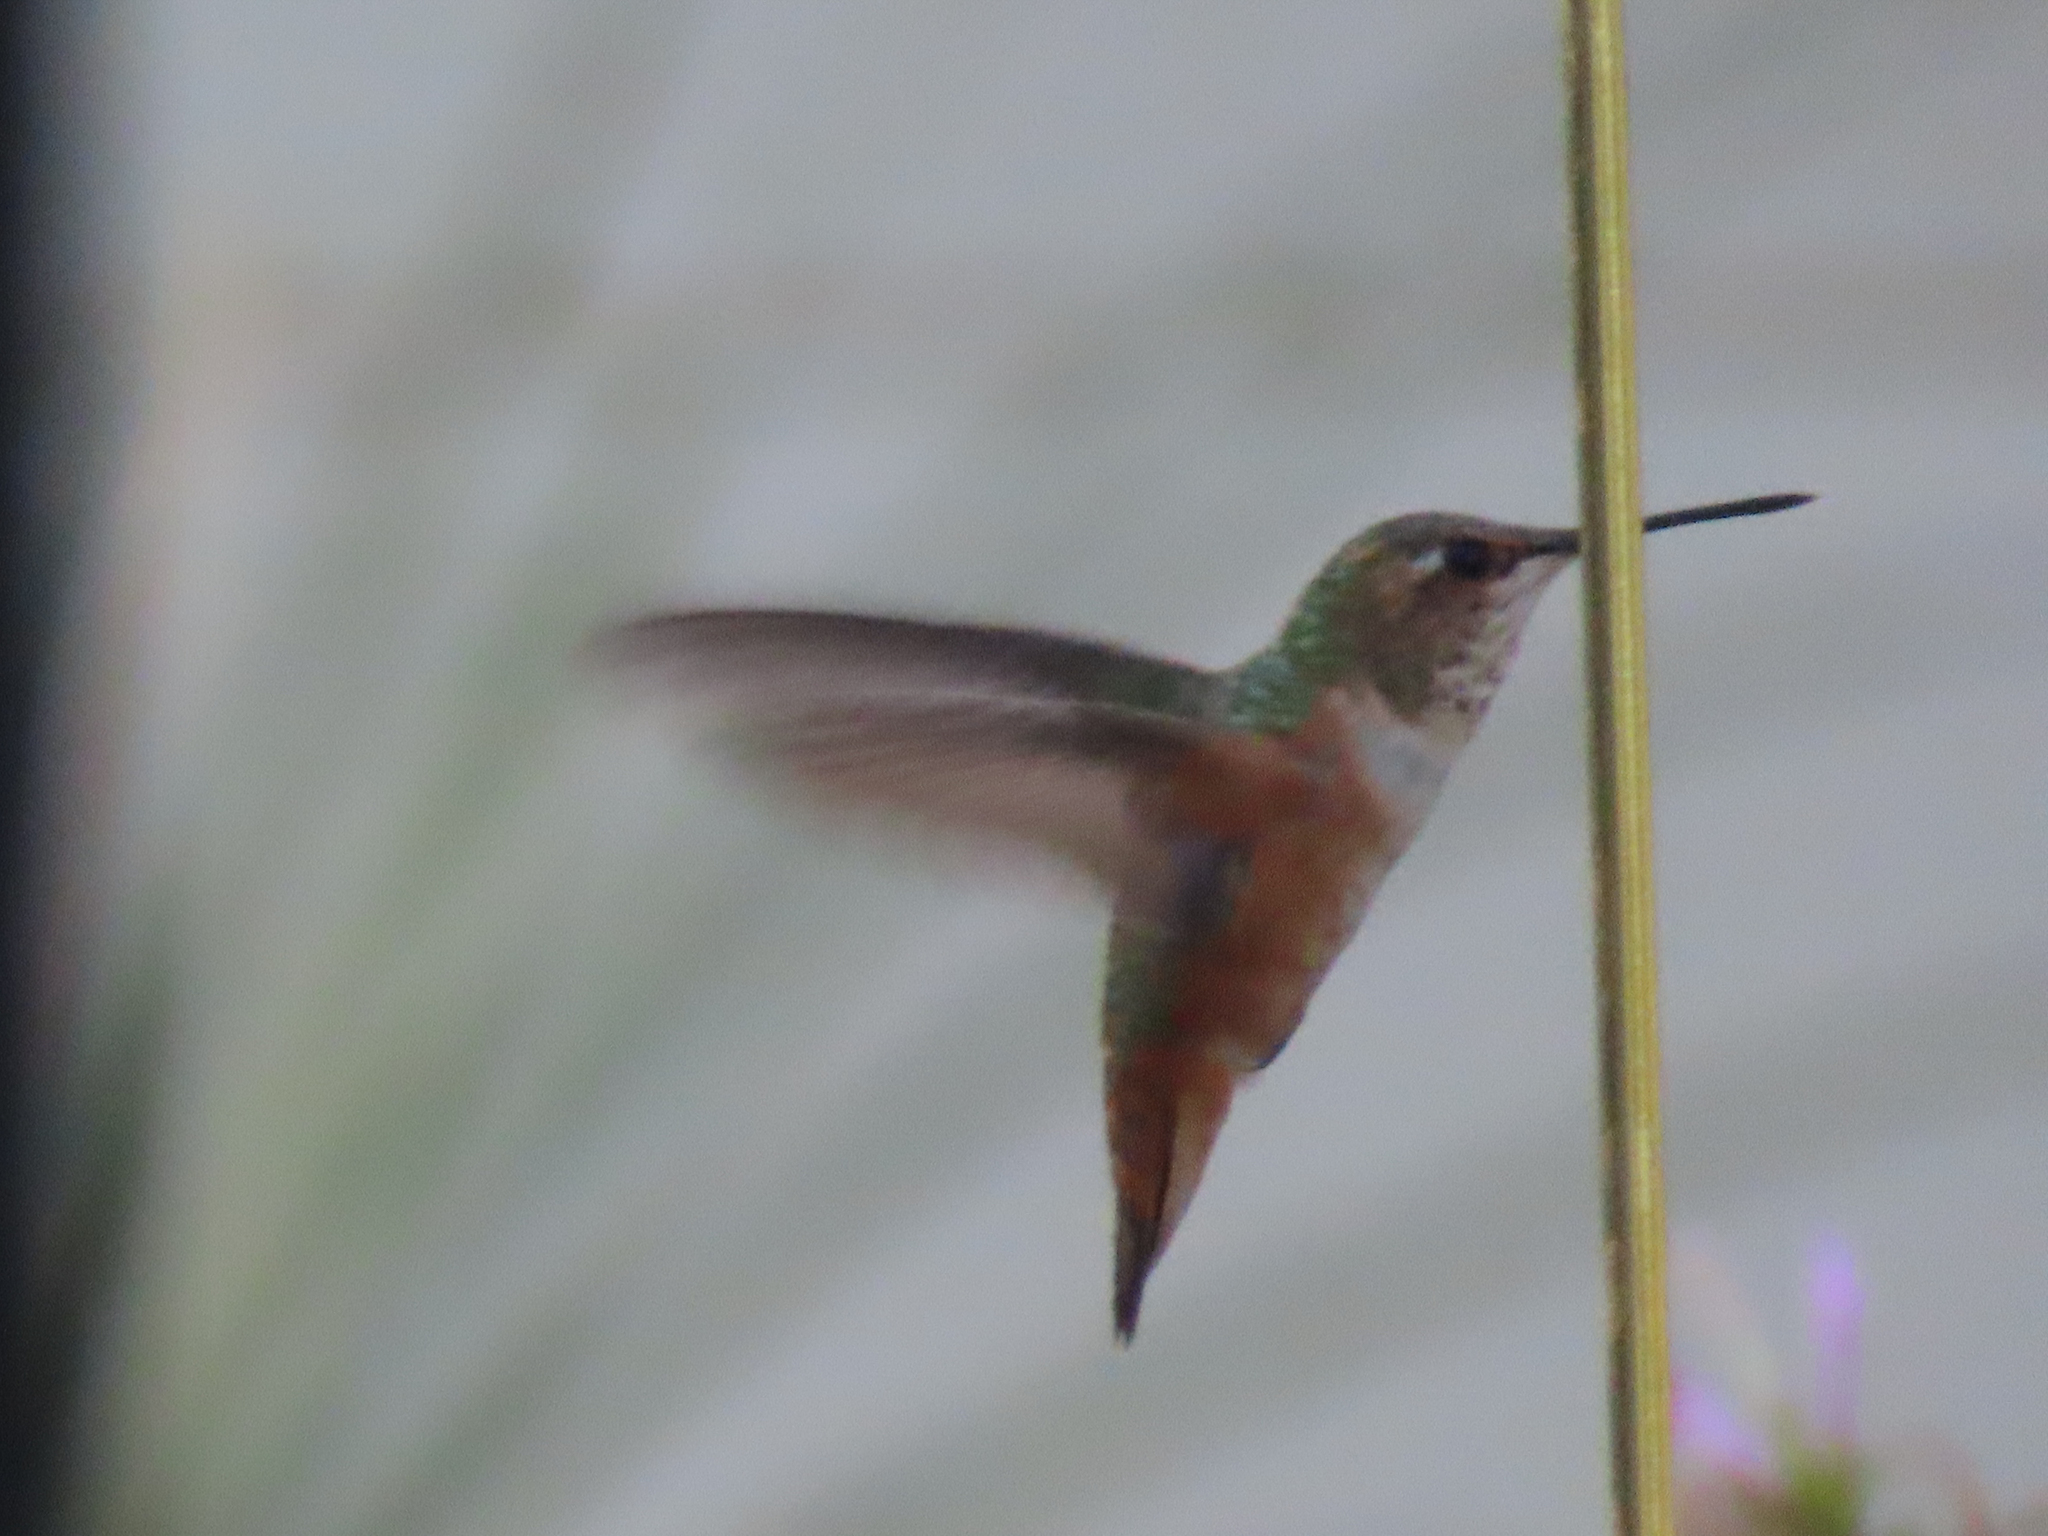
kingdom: Animalia
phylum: Chordata
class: Aves
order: Apodiformes
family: Trochilidae
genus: Selasphorus
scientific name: Selasphorus rufus
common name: Rufous hummingbird
